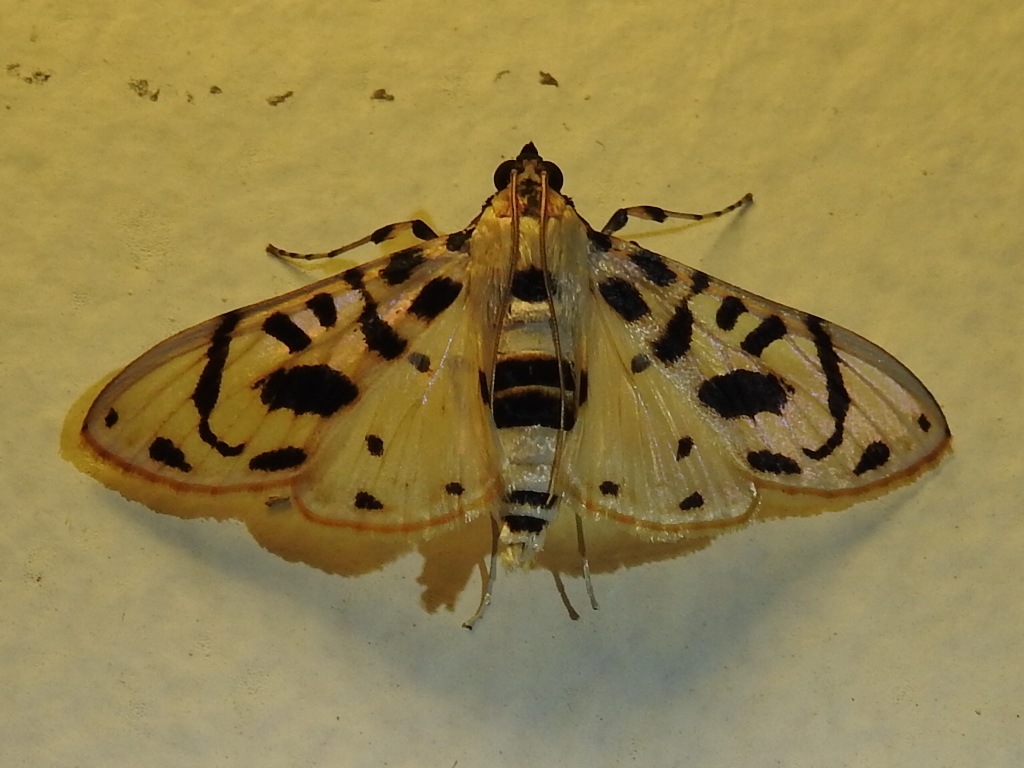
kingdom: Animalia
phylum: Arthropoda
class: Insecta
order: Lepidoptera
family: Crambidae
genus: Azochis
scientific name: Azochis curvilinealis
